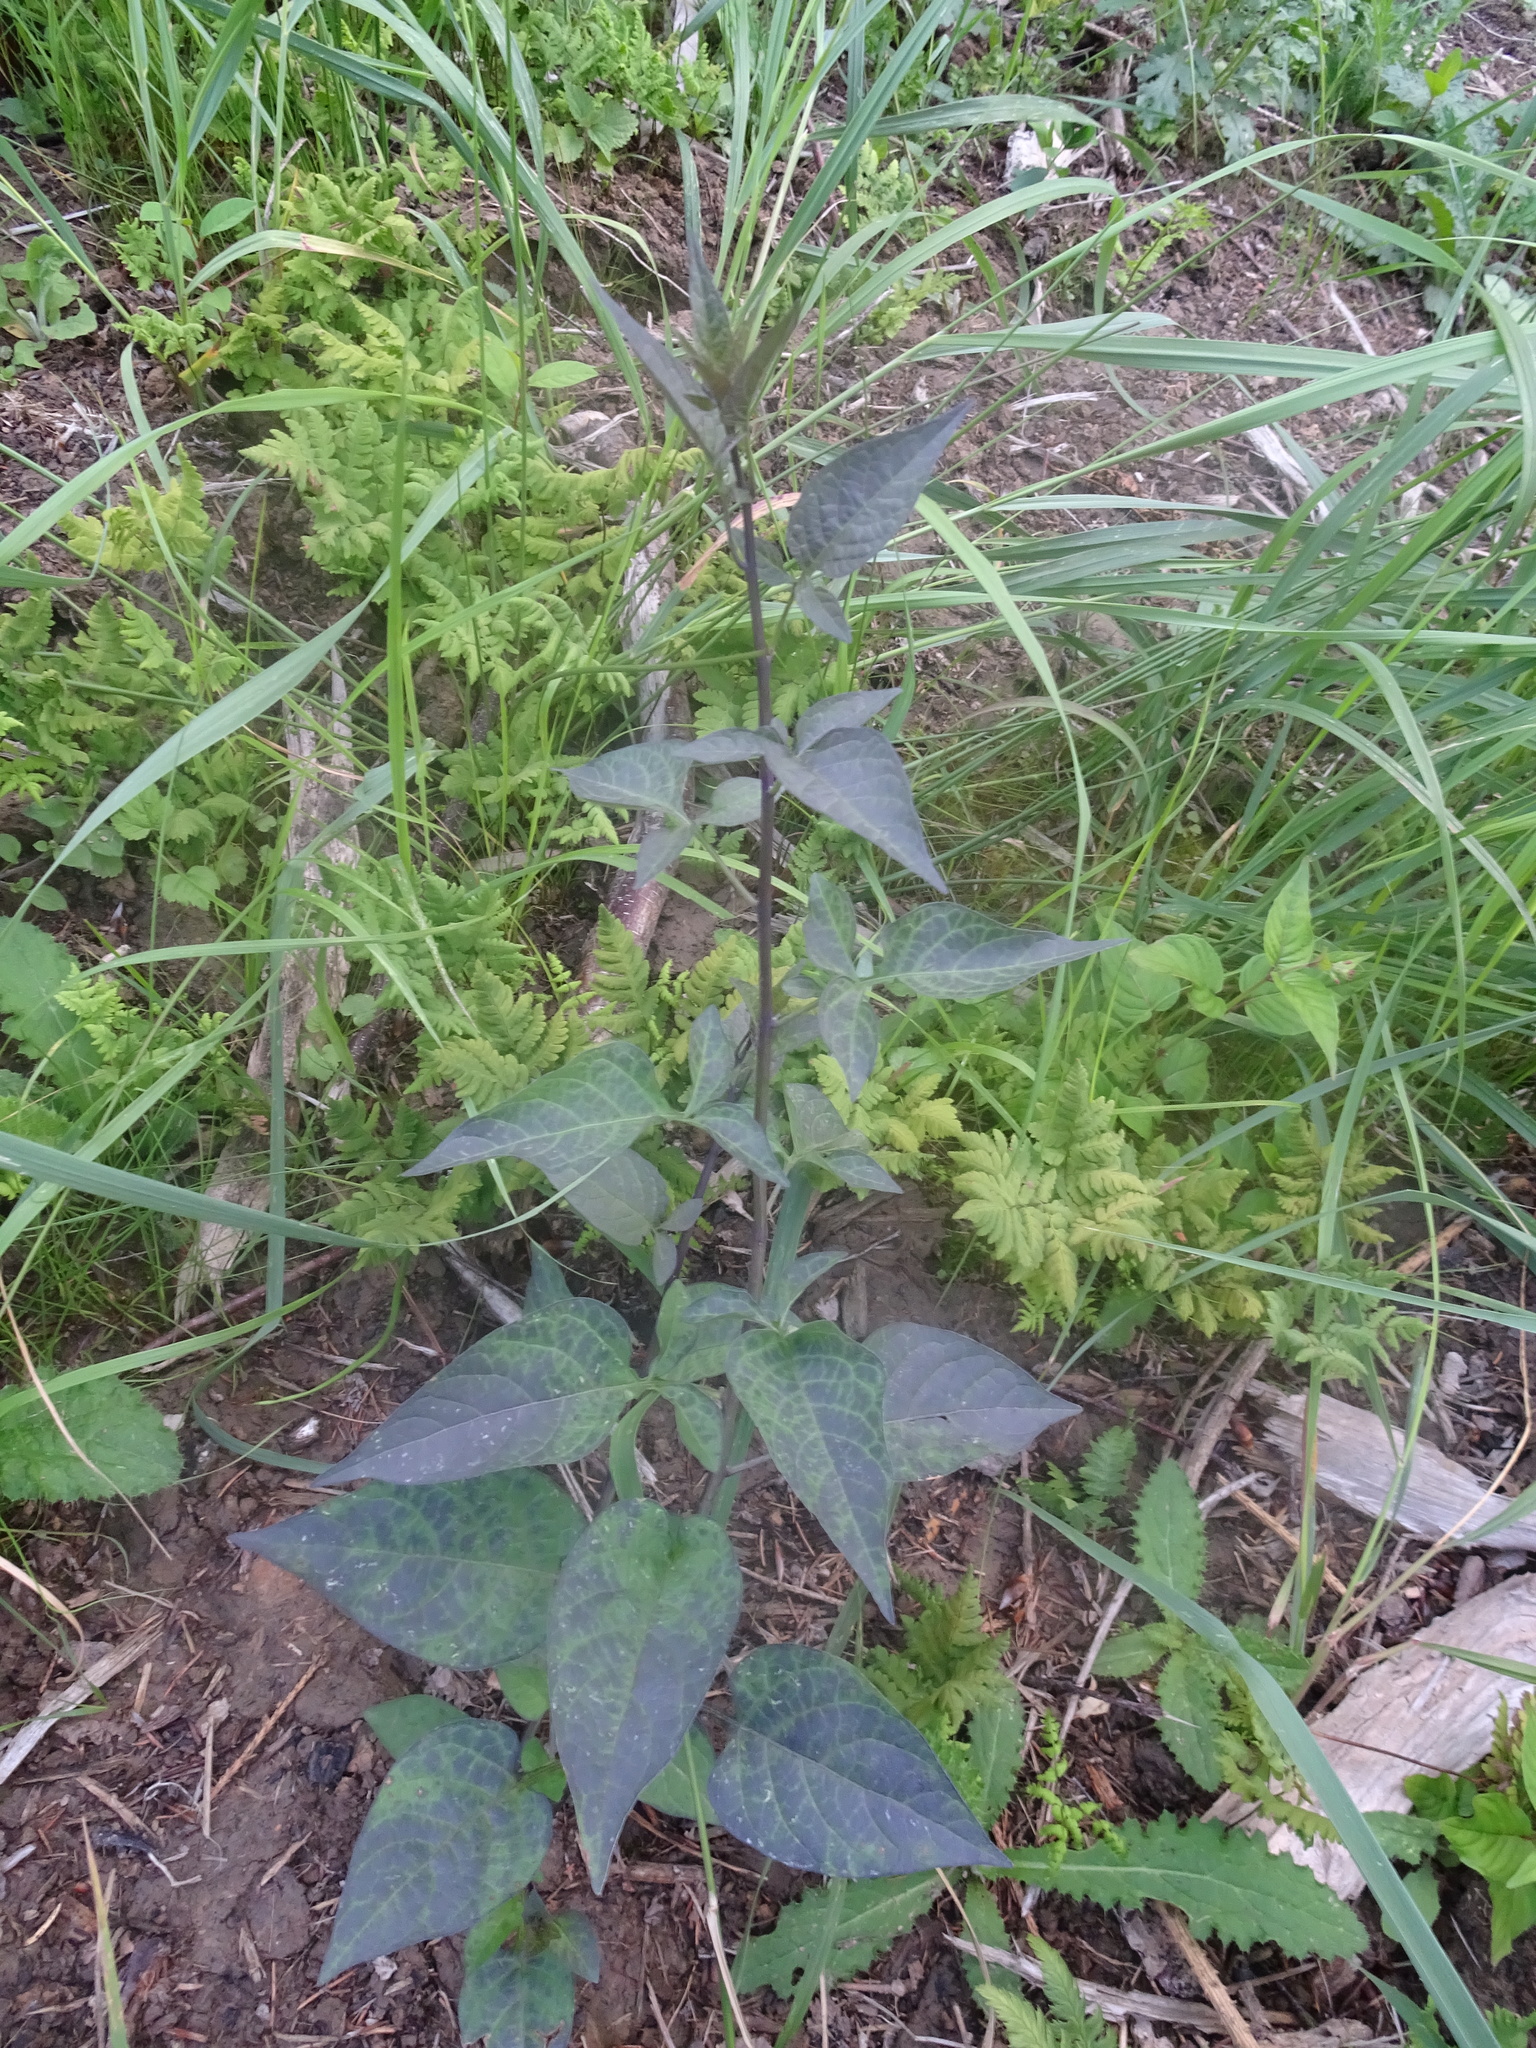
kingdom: Plantae
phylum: Tracheophyta
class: Magnoliopsida
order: Solanales
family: Solanaceae
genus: Solanum
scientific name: Solanum dulcamara
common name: Climbing nightshade
